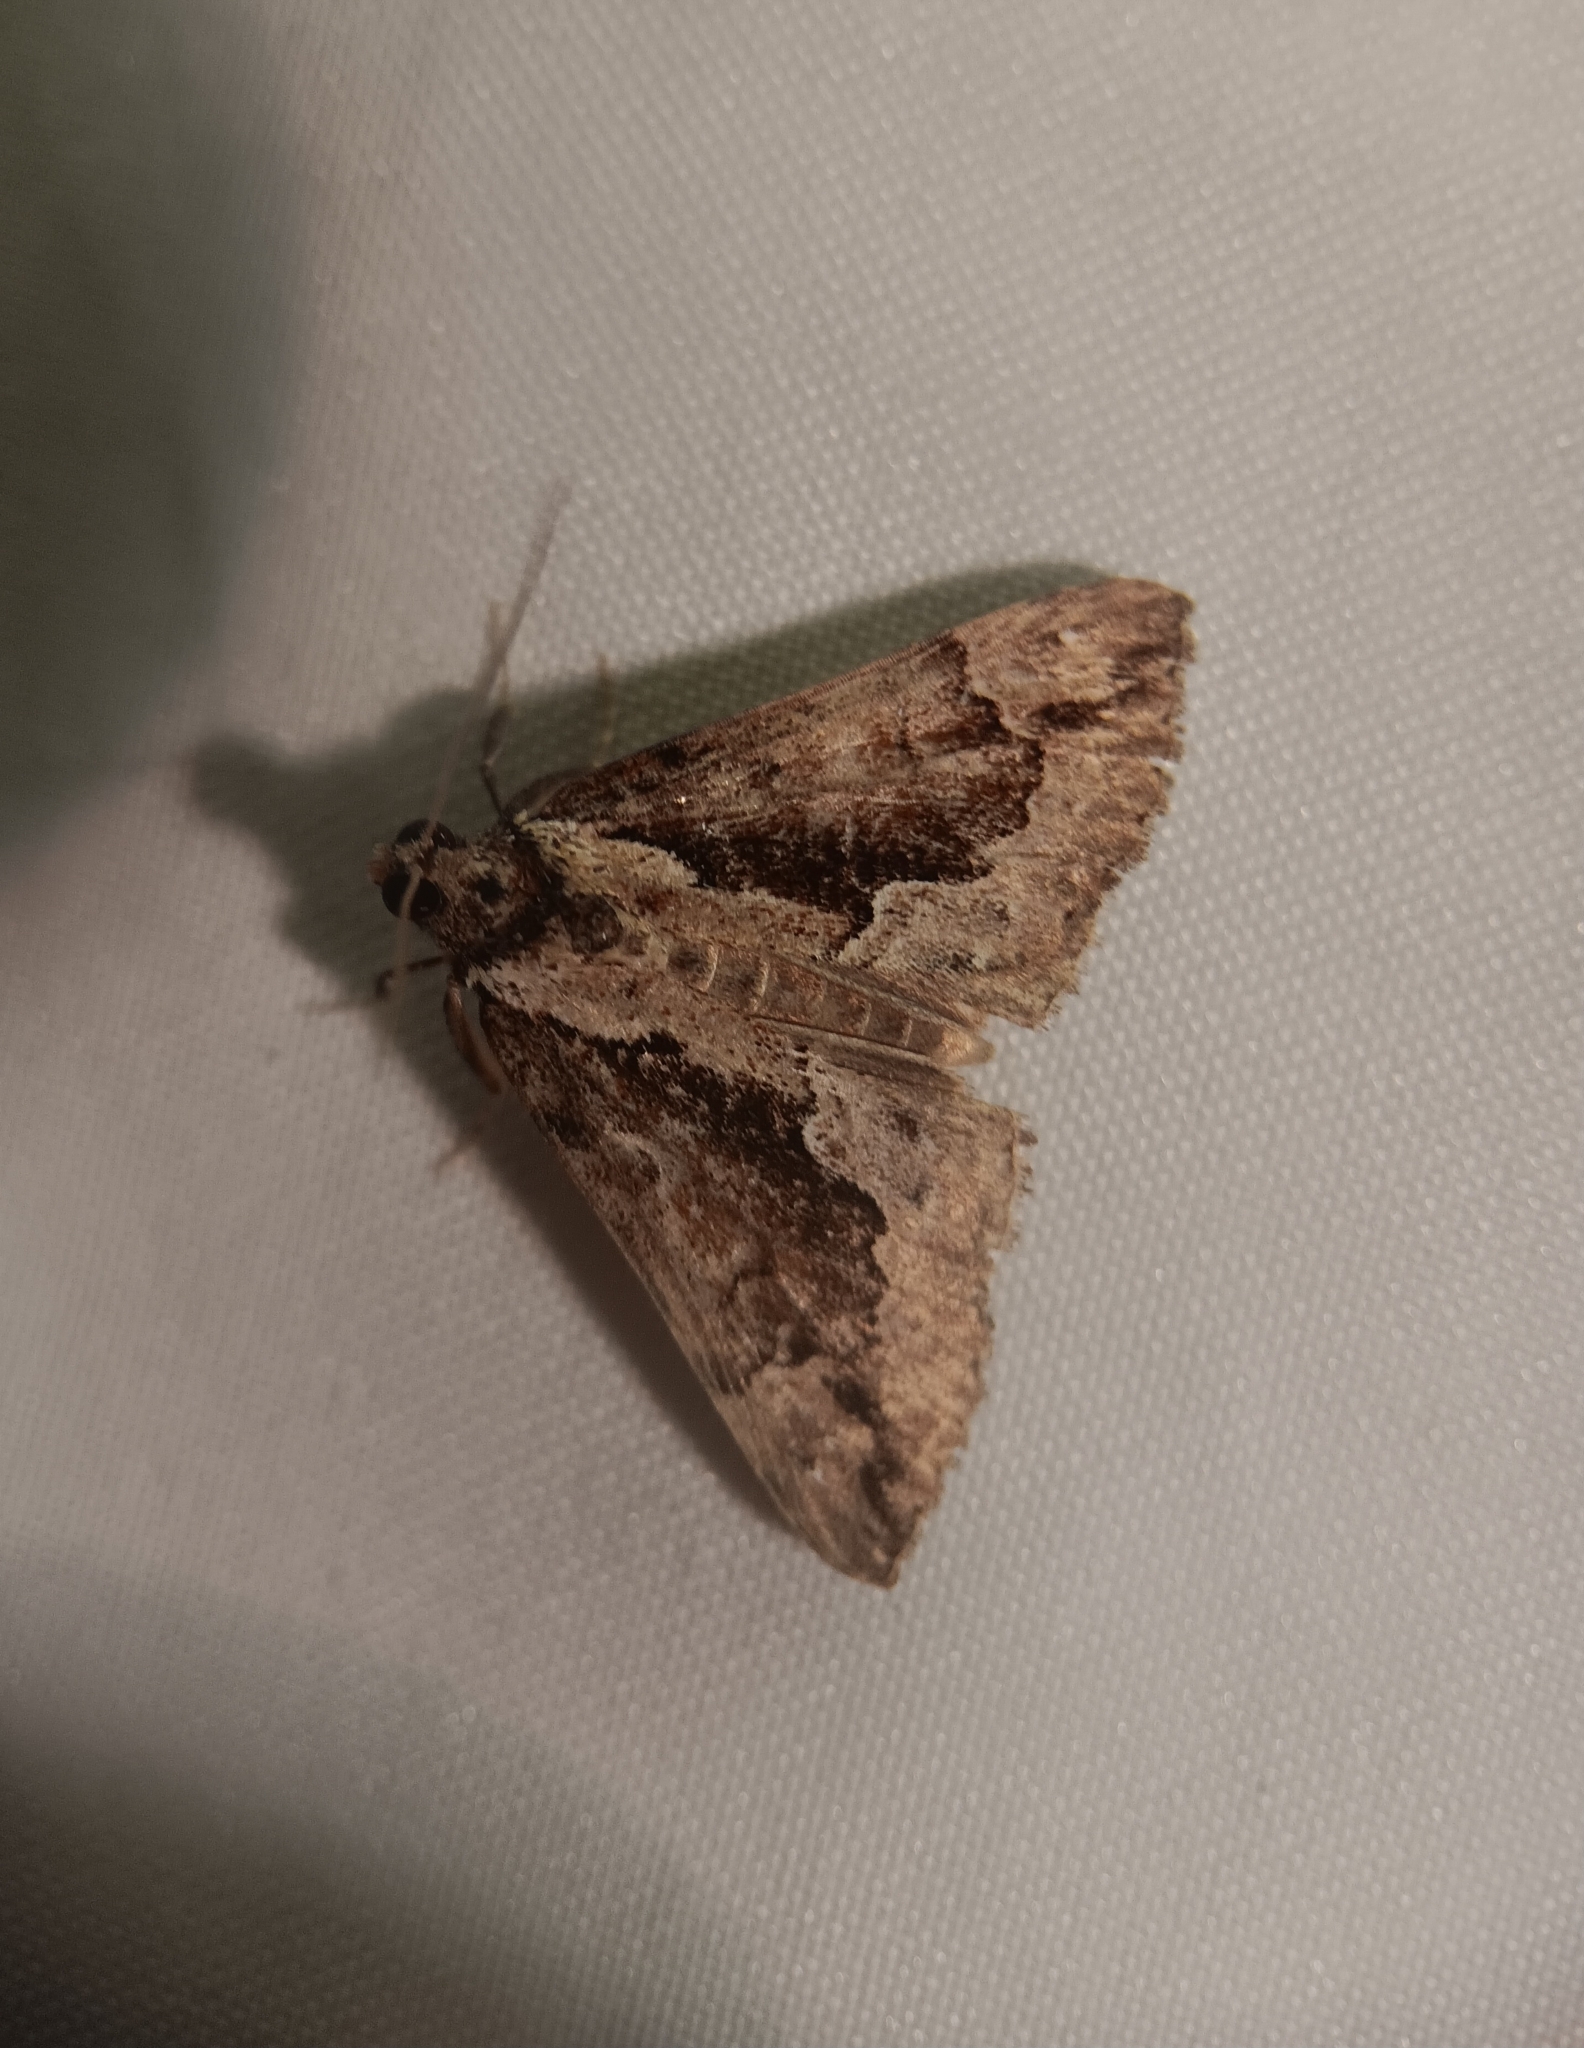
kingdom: Animalia
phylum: Arthropoda
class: Insecta
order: Lepidoptera
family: Erebidae
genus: Hypena
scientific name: Hypena baltimoralis
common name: Baltimore snout
